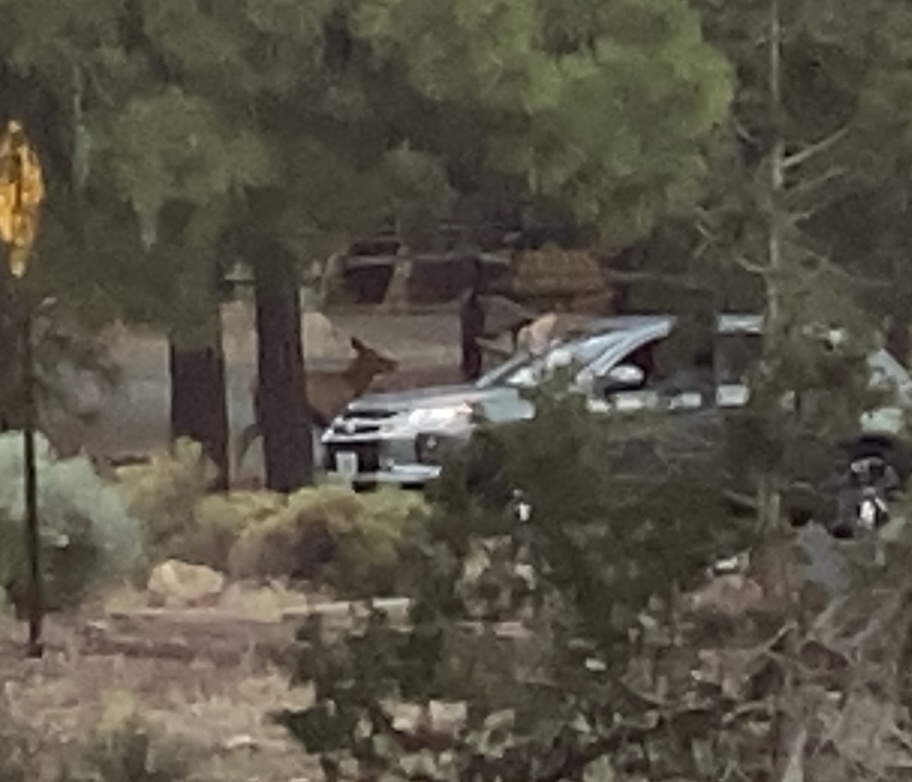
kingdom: Animalia
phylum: Chordata
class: Mammalia
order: Artiodactyla
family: Cervidae
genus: Cervus
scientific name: Cervus elaphus
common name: Red deer
